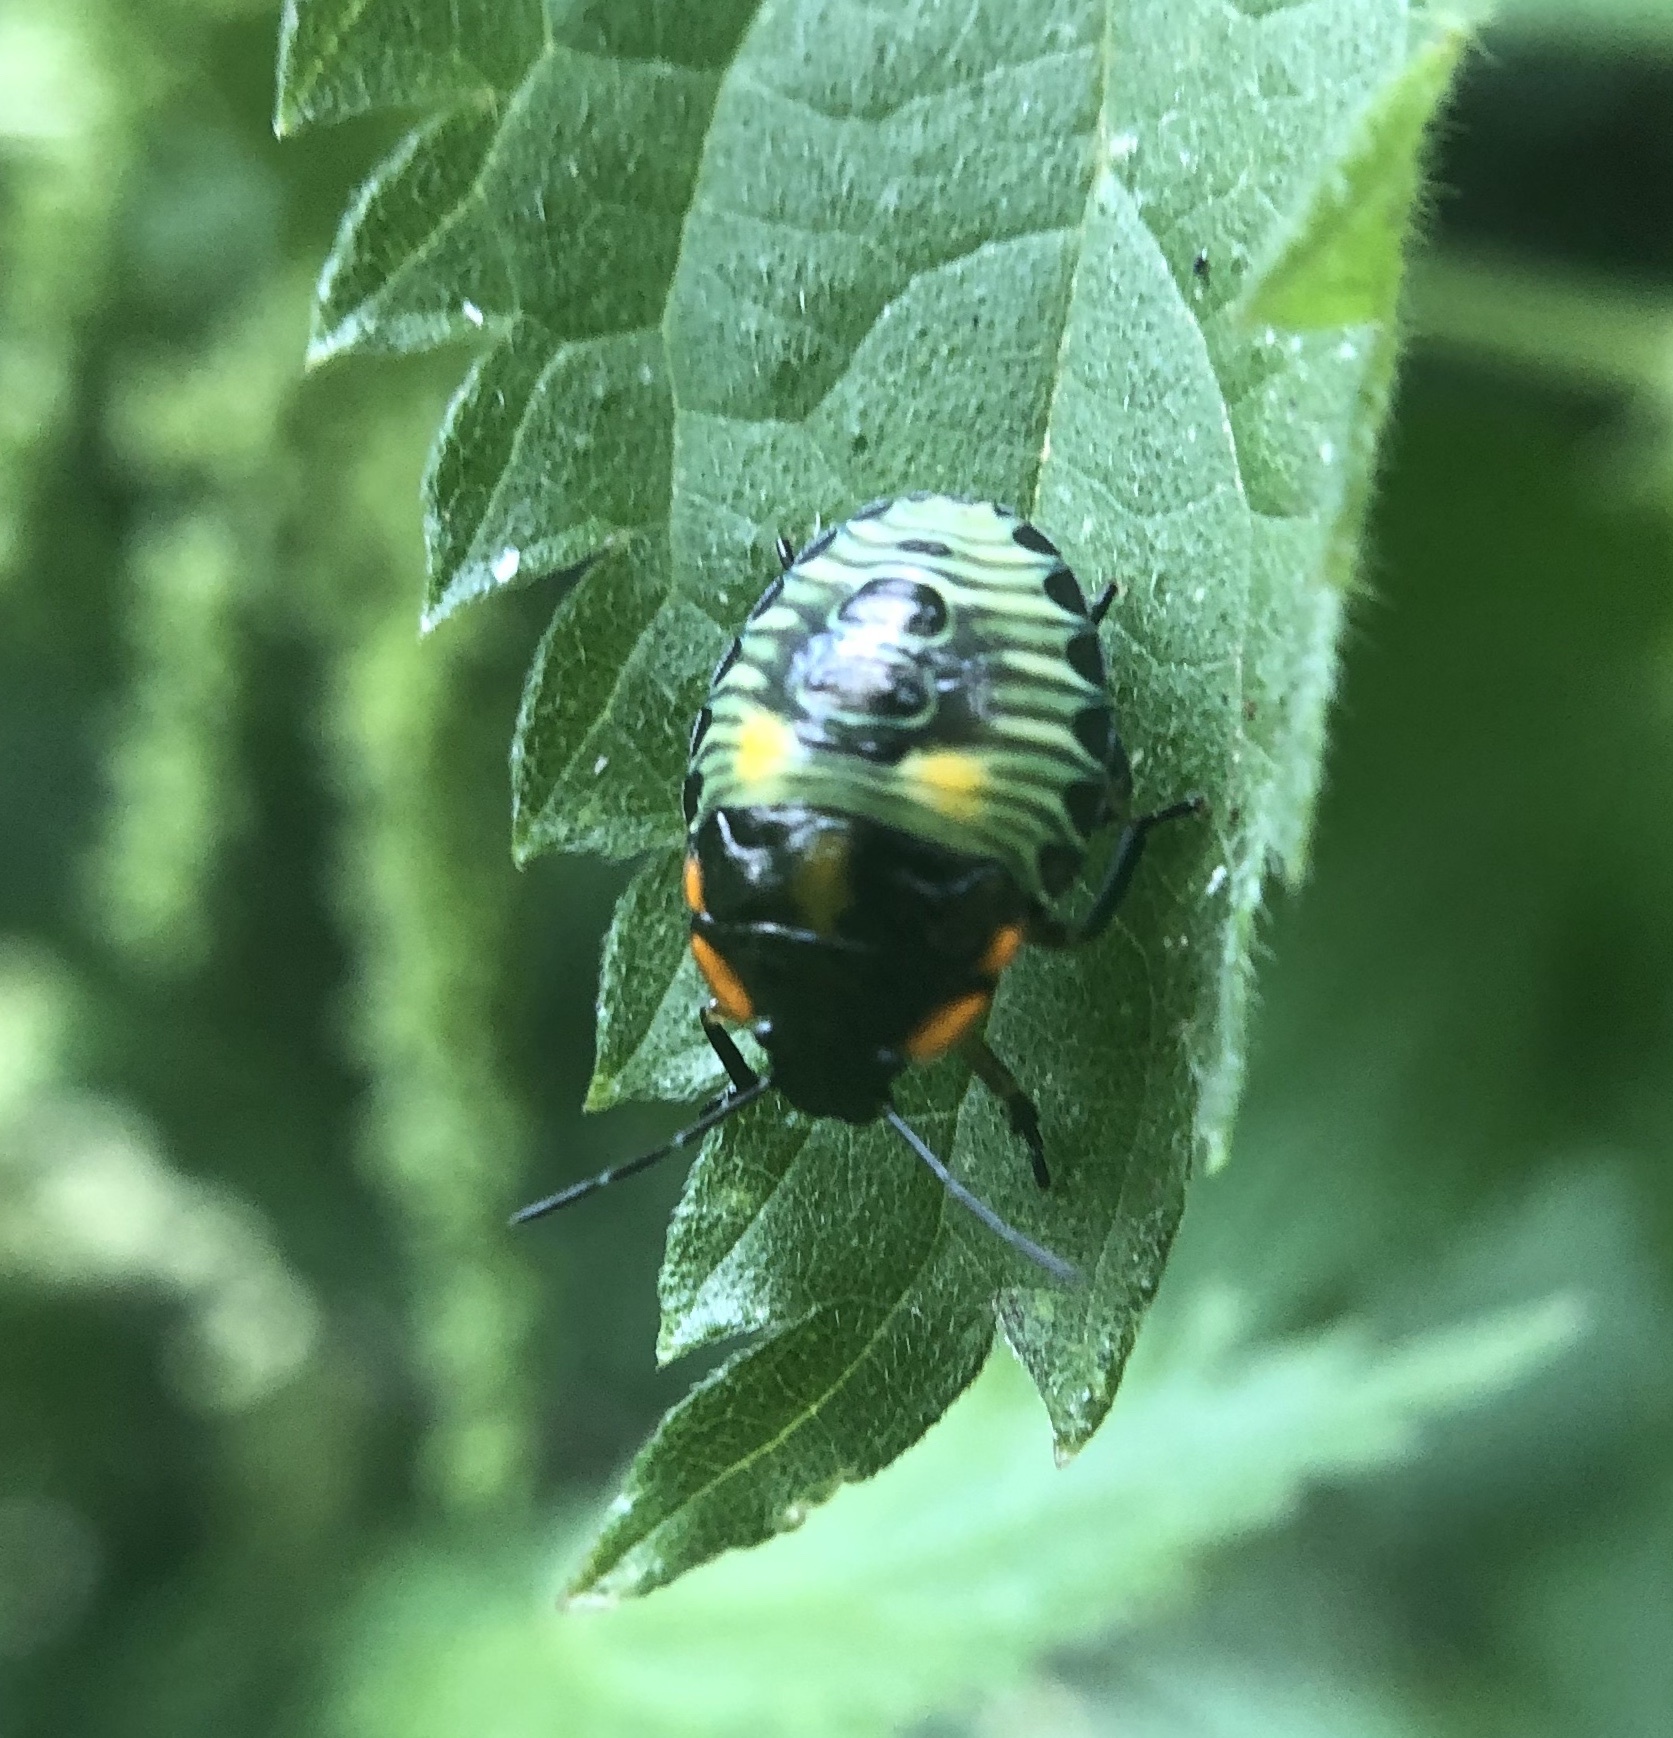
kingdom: Animalia
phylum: Arthropoda
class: Insecta
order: Hemiptera
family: Pentatomidae
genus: Chinavia
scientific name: Chinavia hilaris
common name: Green stink bug
